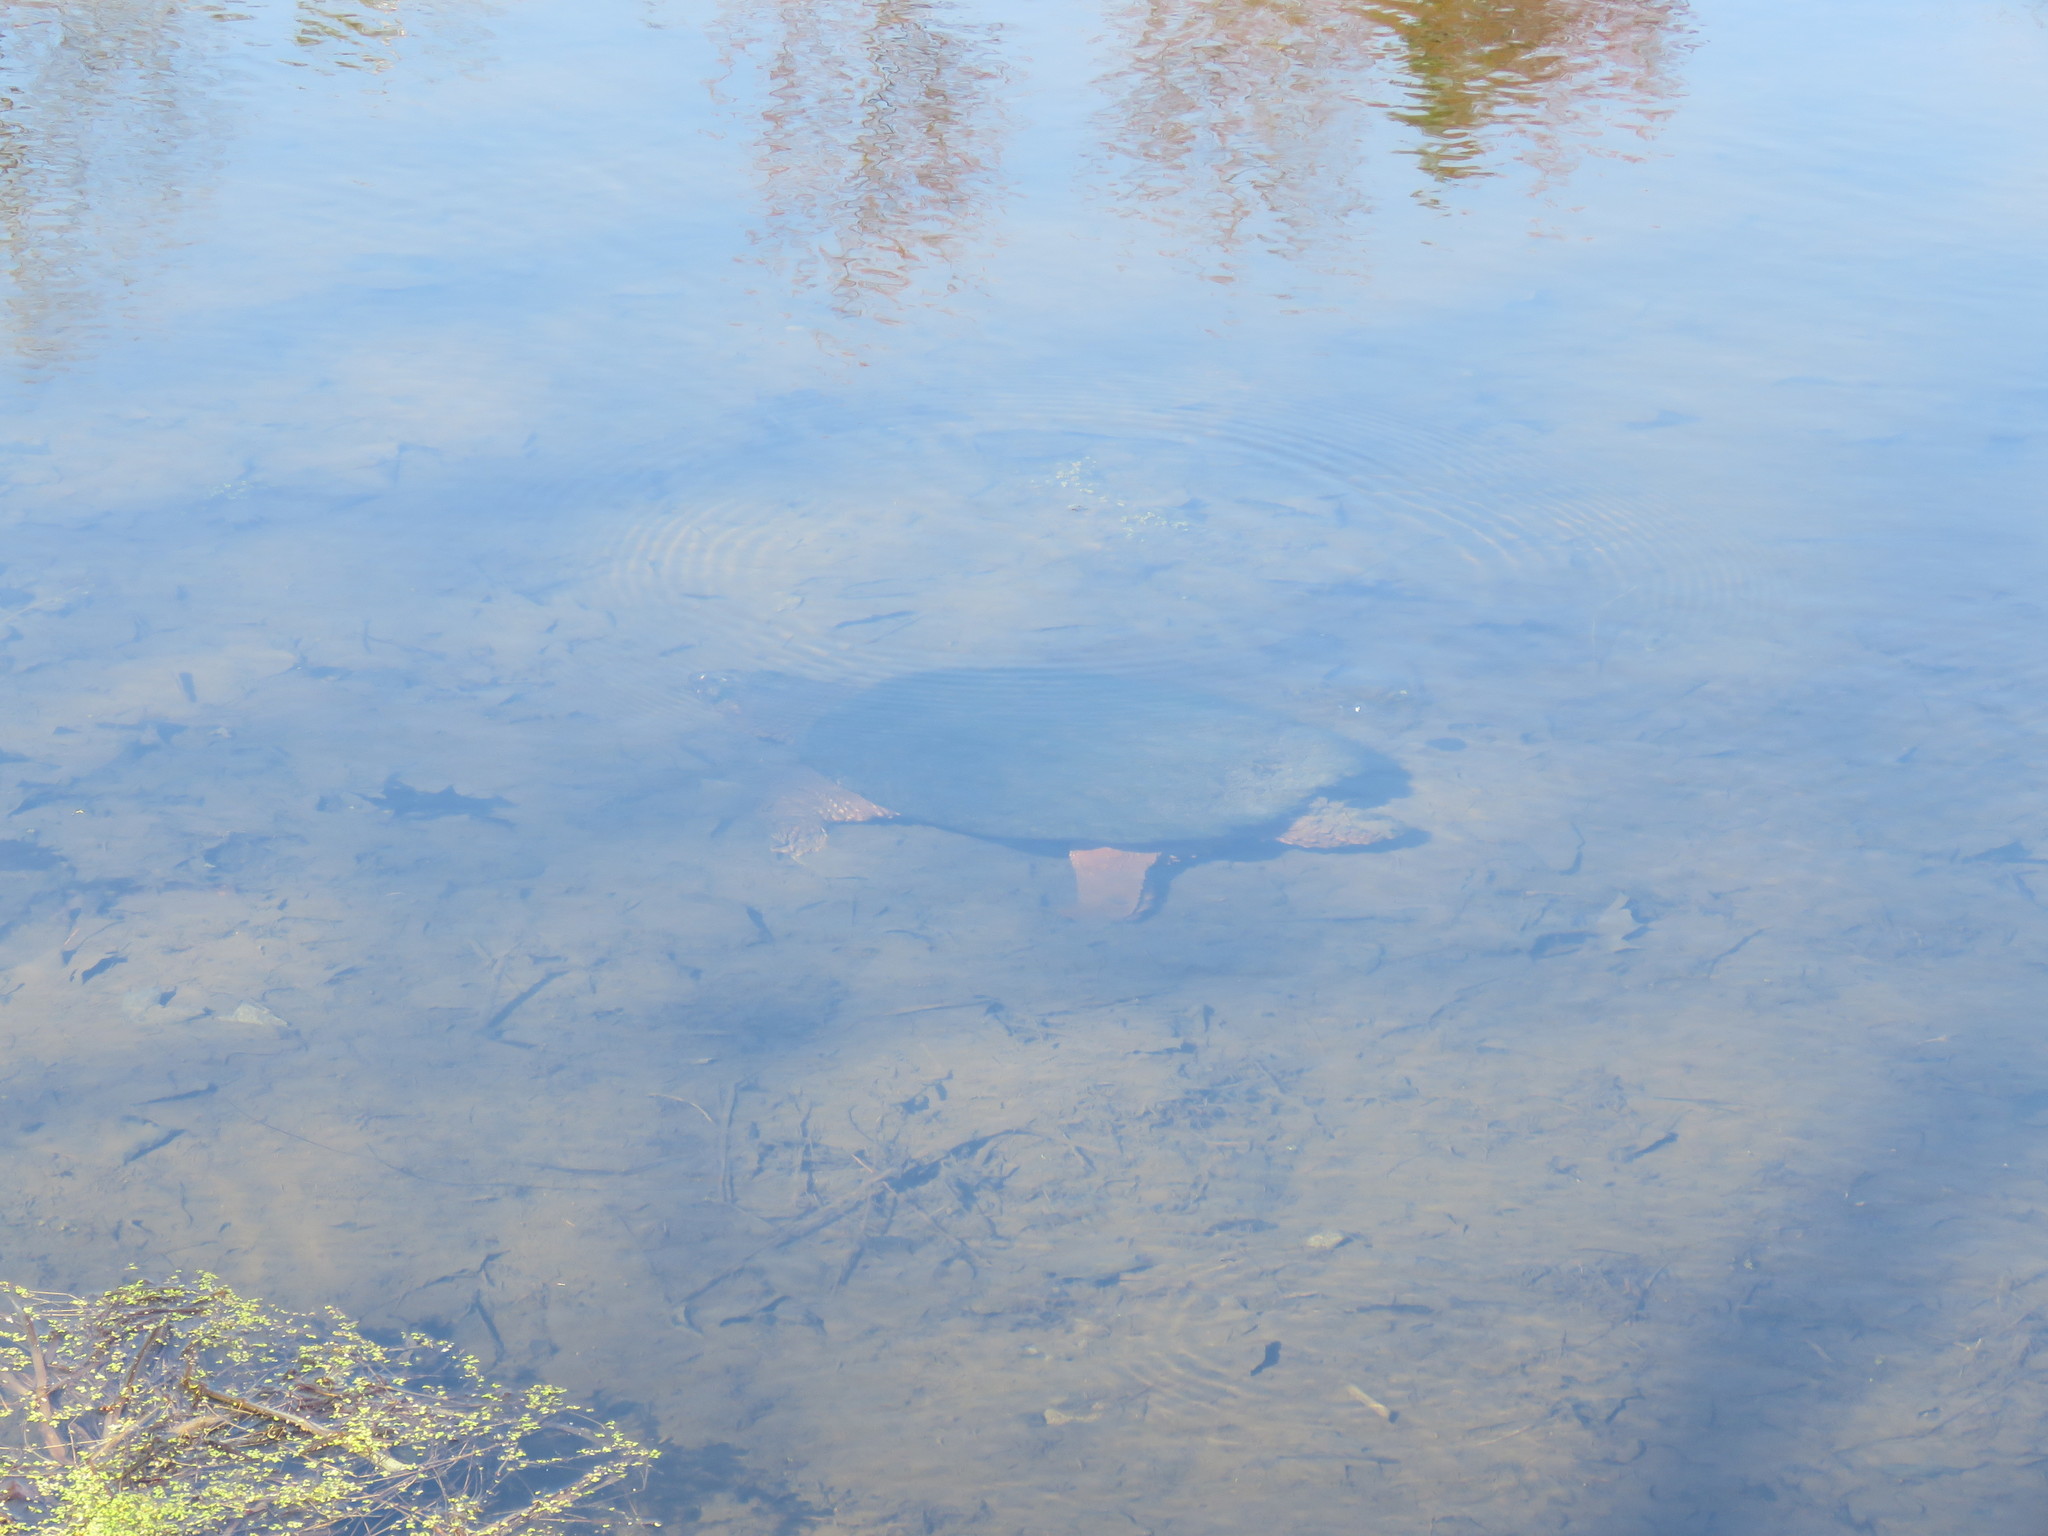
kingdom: Animalia
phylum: Chordata
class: Testudines
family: Chelydridae
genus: Chelydra
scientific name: Chelydra serpentina
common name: Common snapping turtle
